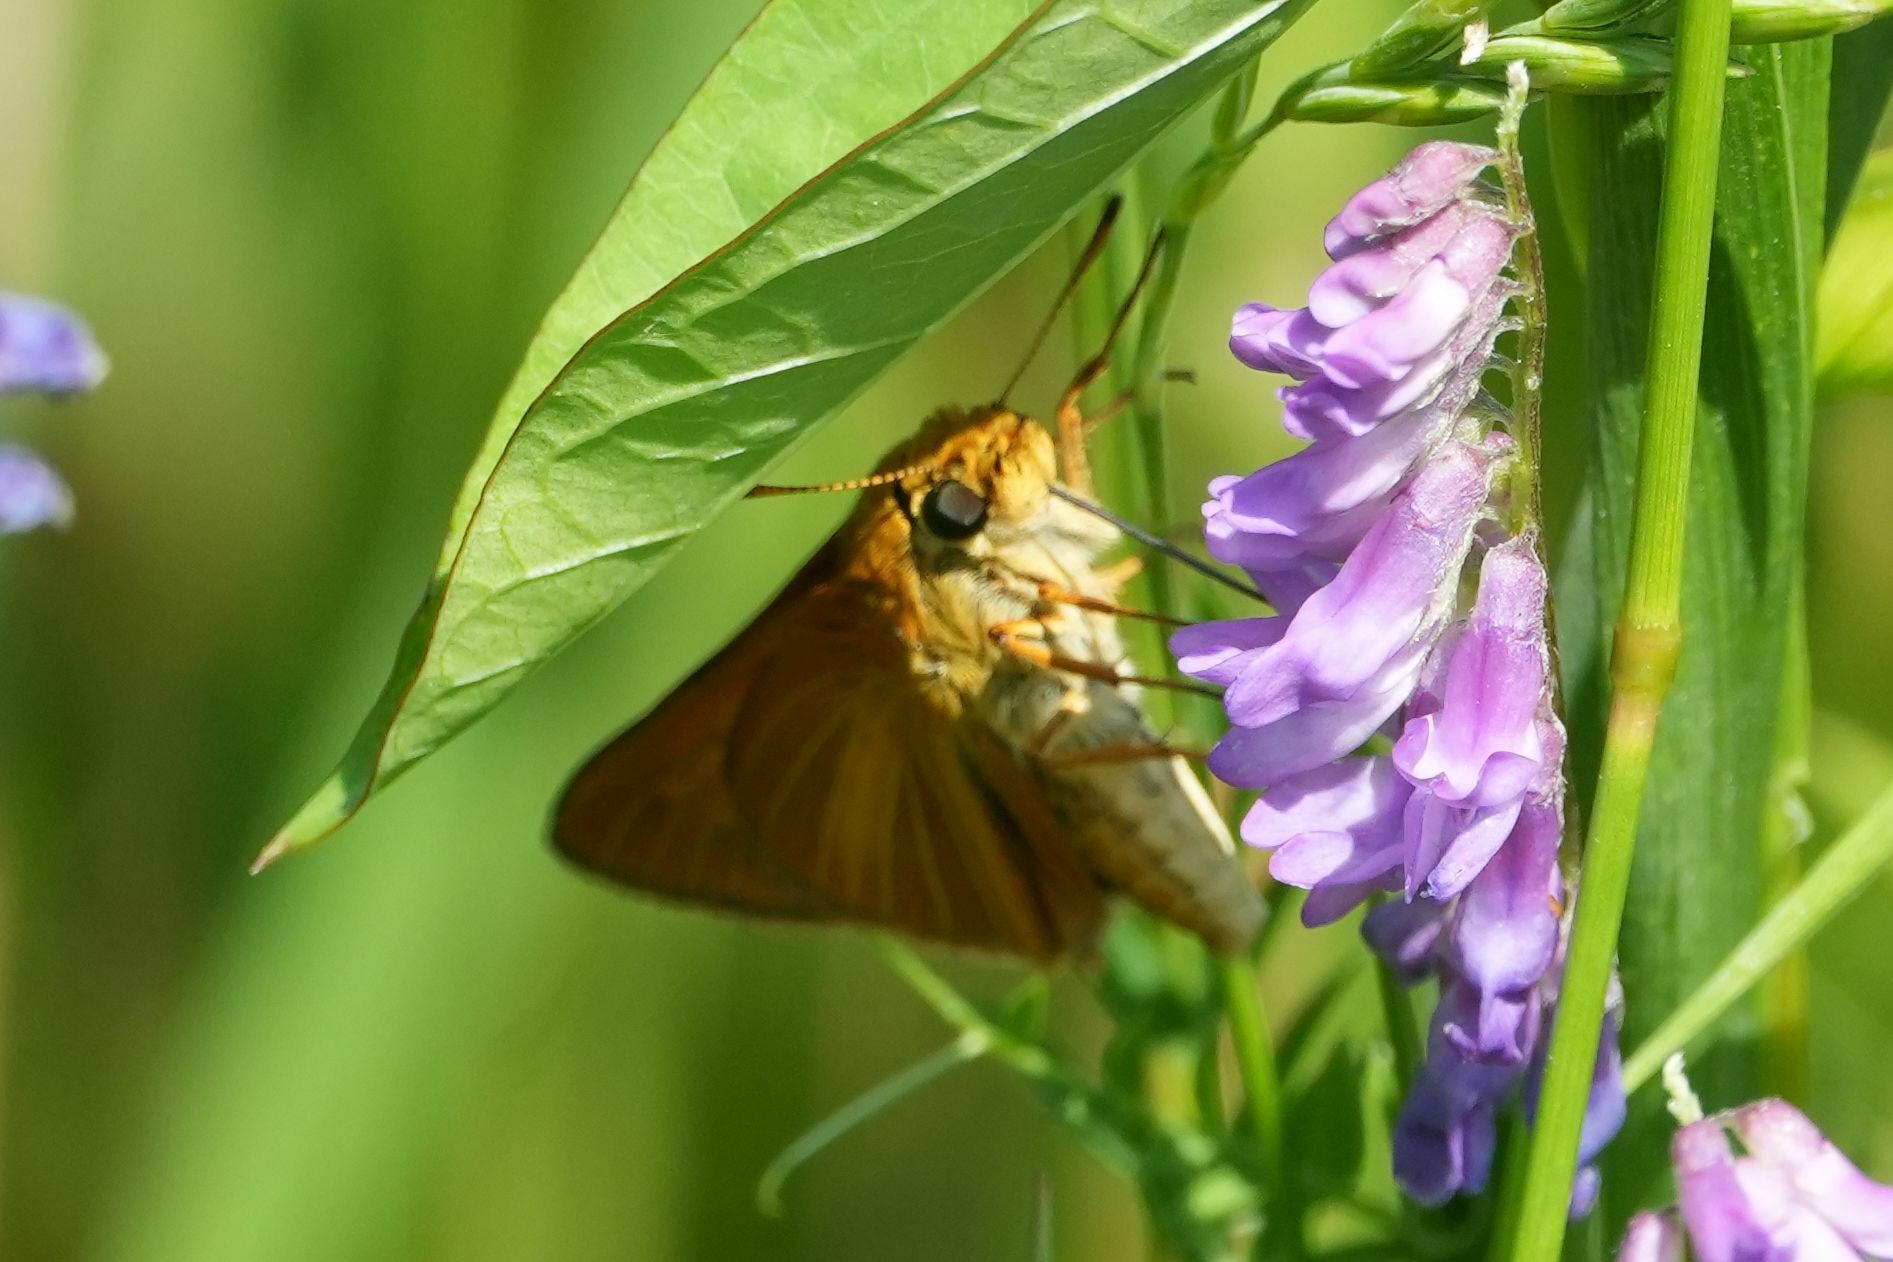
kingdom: Animalia
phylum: Arthropoda
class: Insecta
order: Lepidoptera
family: Hesperiidae
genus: Euphyes
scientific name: Euphyes dion
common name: Dion skipper
